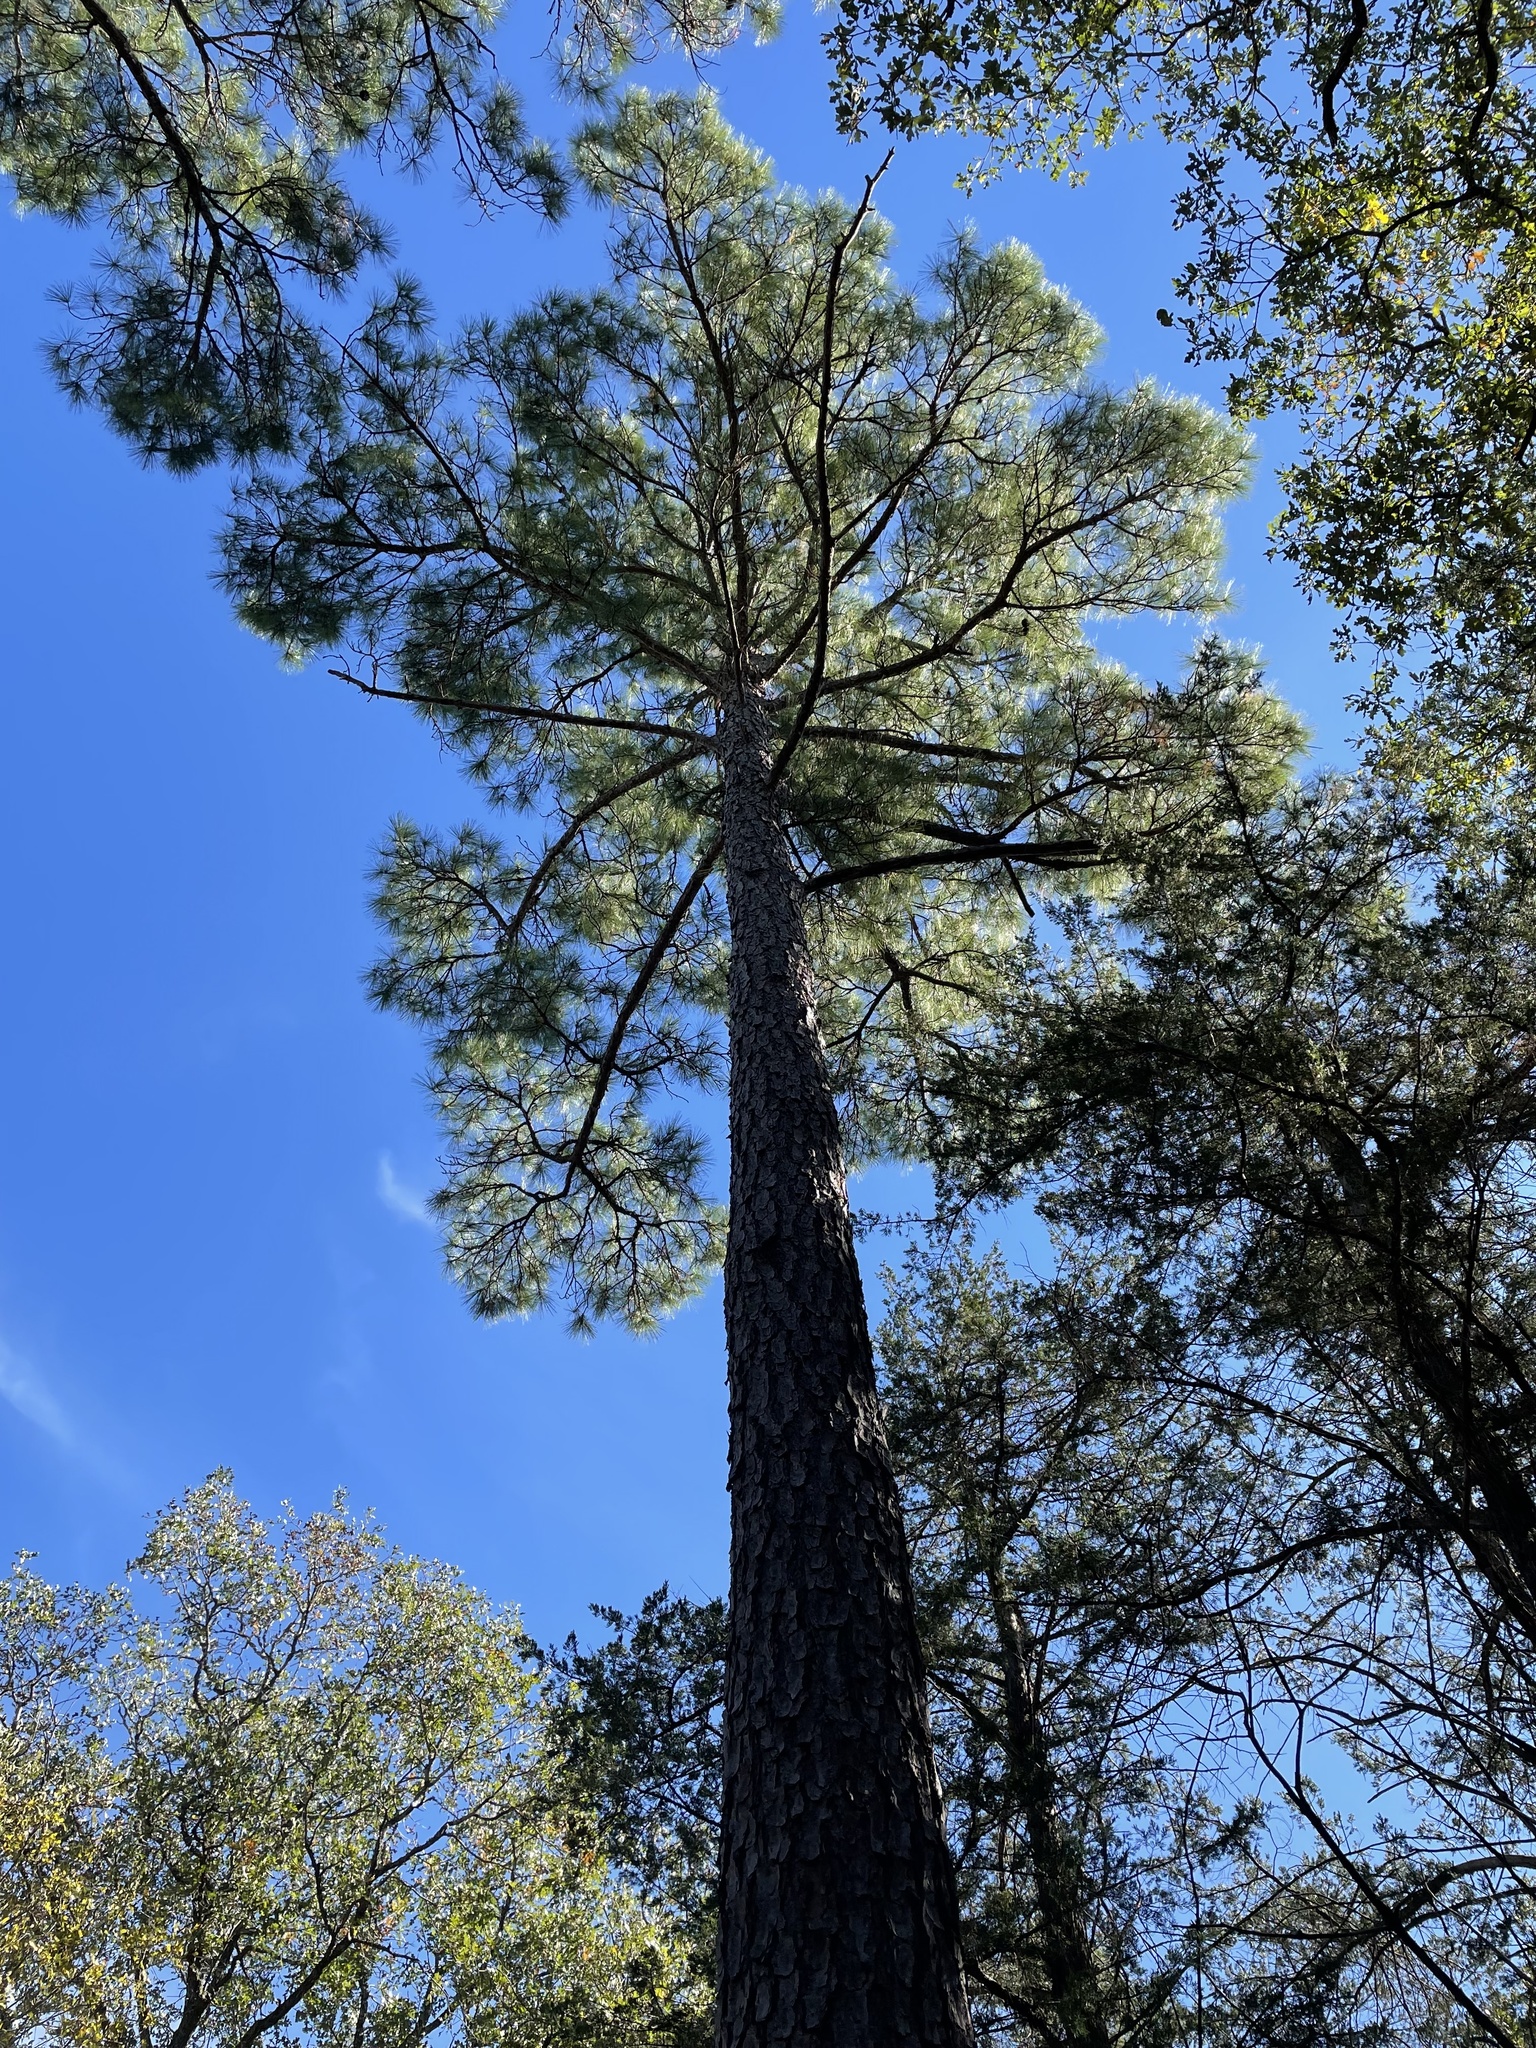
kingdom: Plantae
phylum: Tracheophyta
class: Pinopsida
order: Pinales
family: Pinaceae
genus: Pinus
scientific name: Pinus taeda
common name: Loblolly pine
